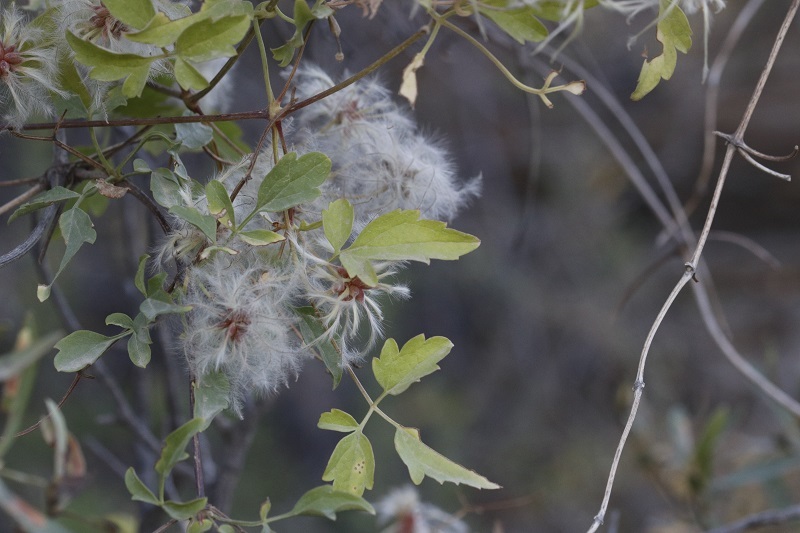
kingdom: Plantae
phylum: Tracheophyta
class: Magnoliopsida
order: Ranunculales
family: Ranunculaceae
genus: Clematis
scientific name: Clematis brachiata
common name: Traveler's-joy
